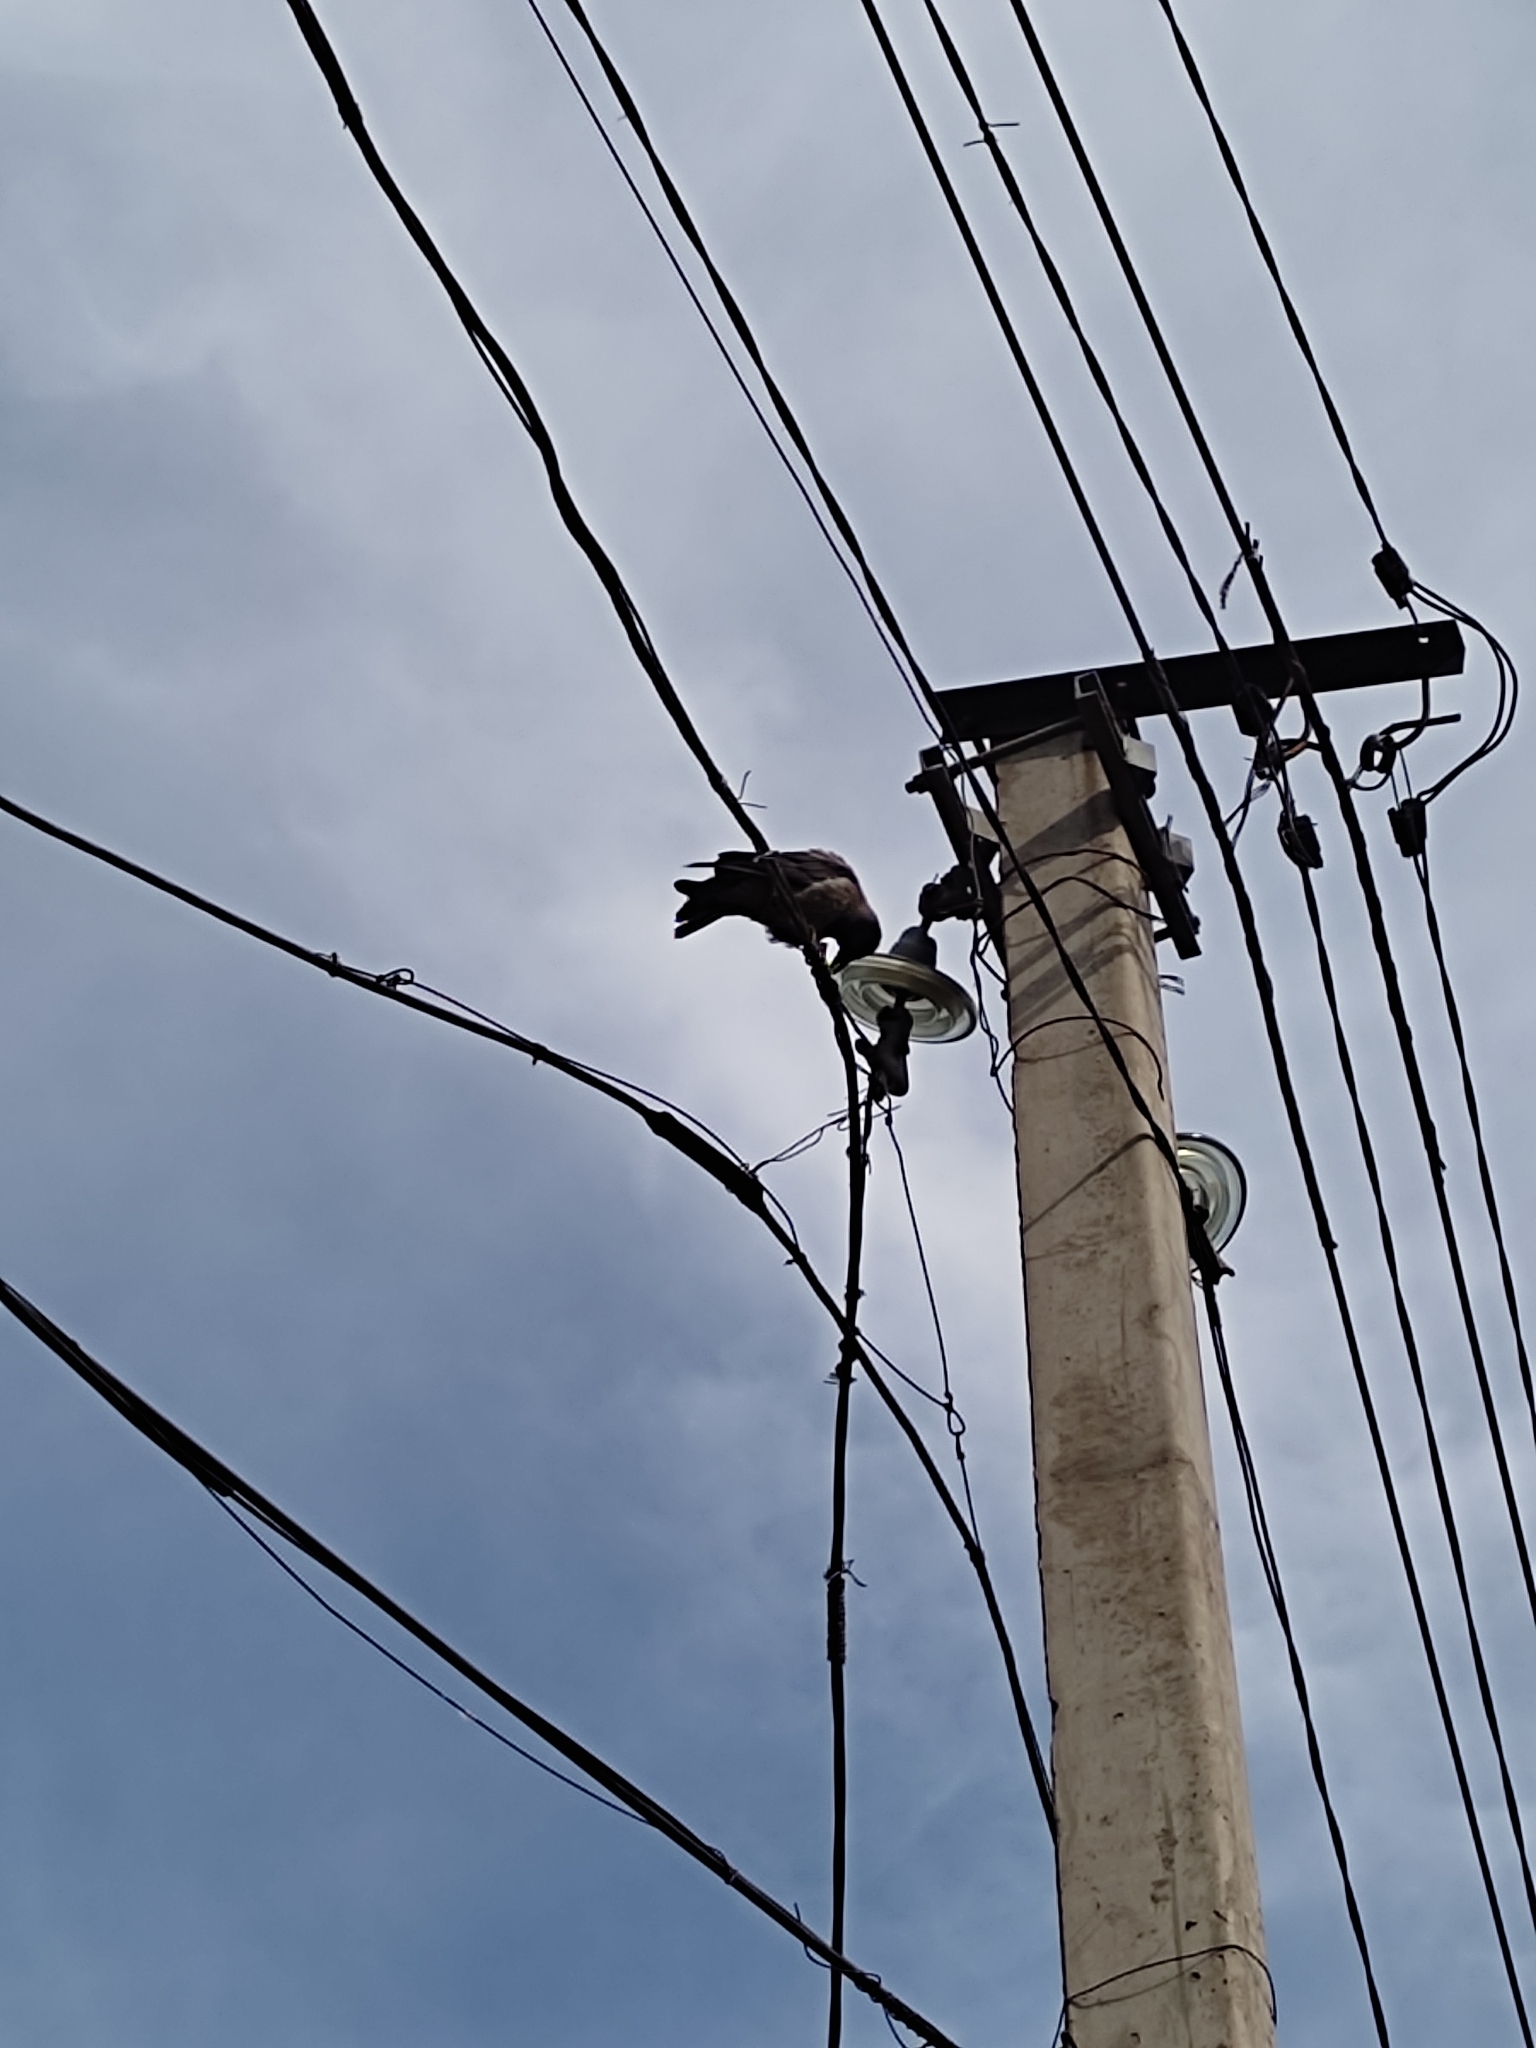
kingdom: Animalia
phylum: Chordata
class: Aves
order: Passeriformes
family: Corvidae
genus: Corvus
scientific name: Corvus cornix
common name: Hooded crow
